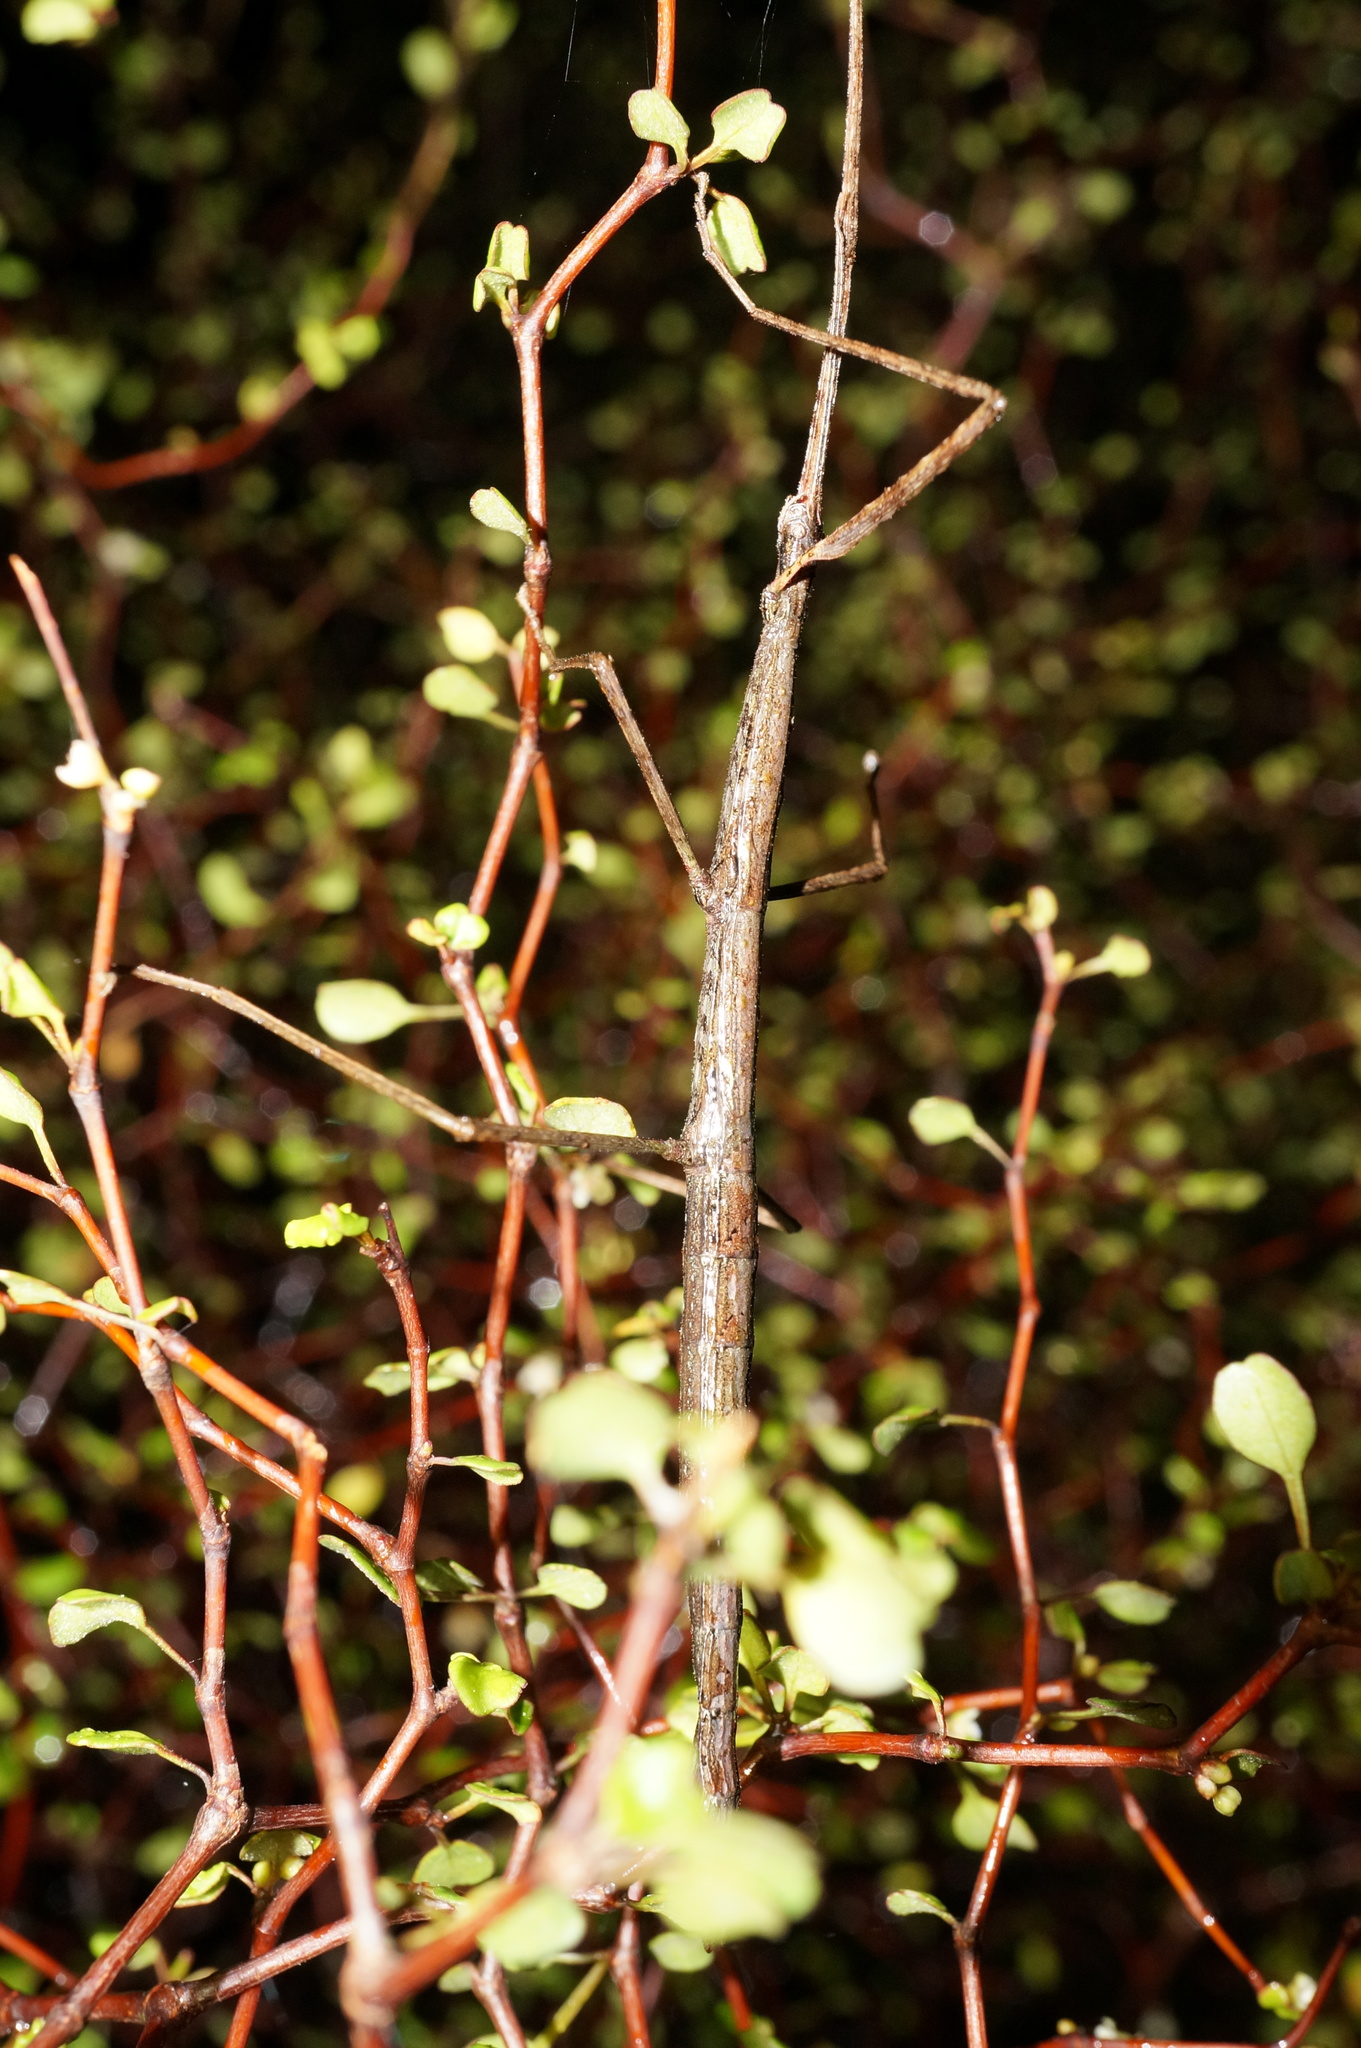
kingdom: Animalia
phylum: Arthropoda
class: Insecta
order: Phasmida
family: Phasmatidae
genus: Clitarchus
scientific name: Clitarchus hookeri
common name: Smooth stick insect
